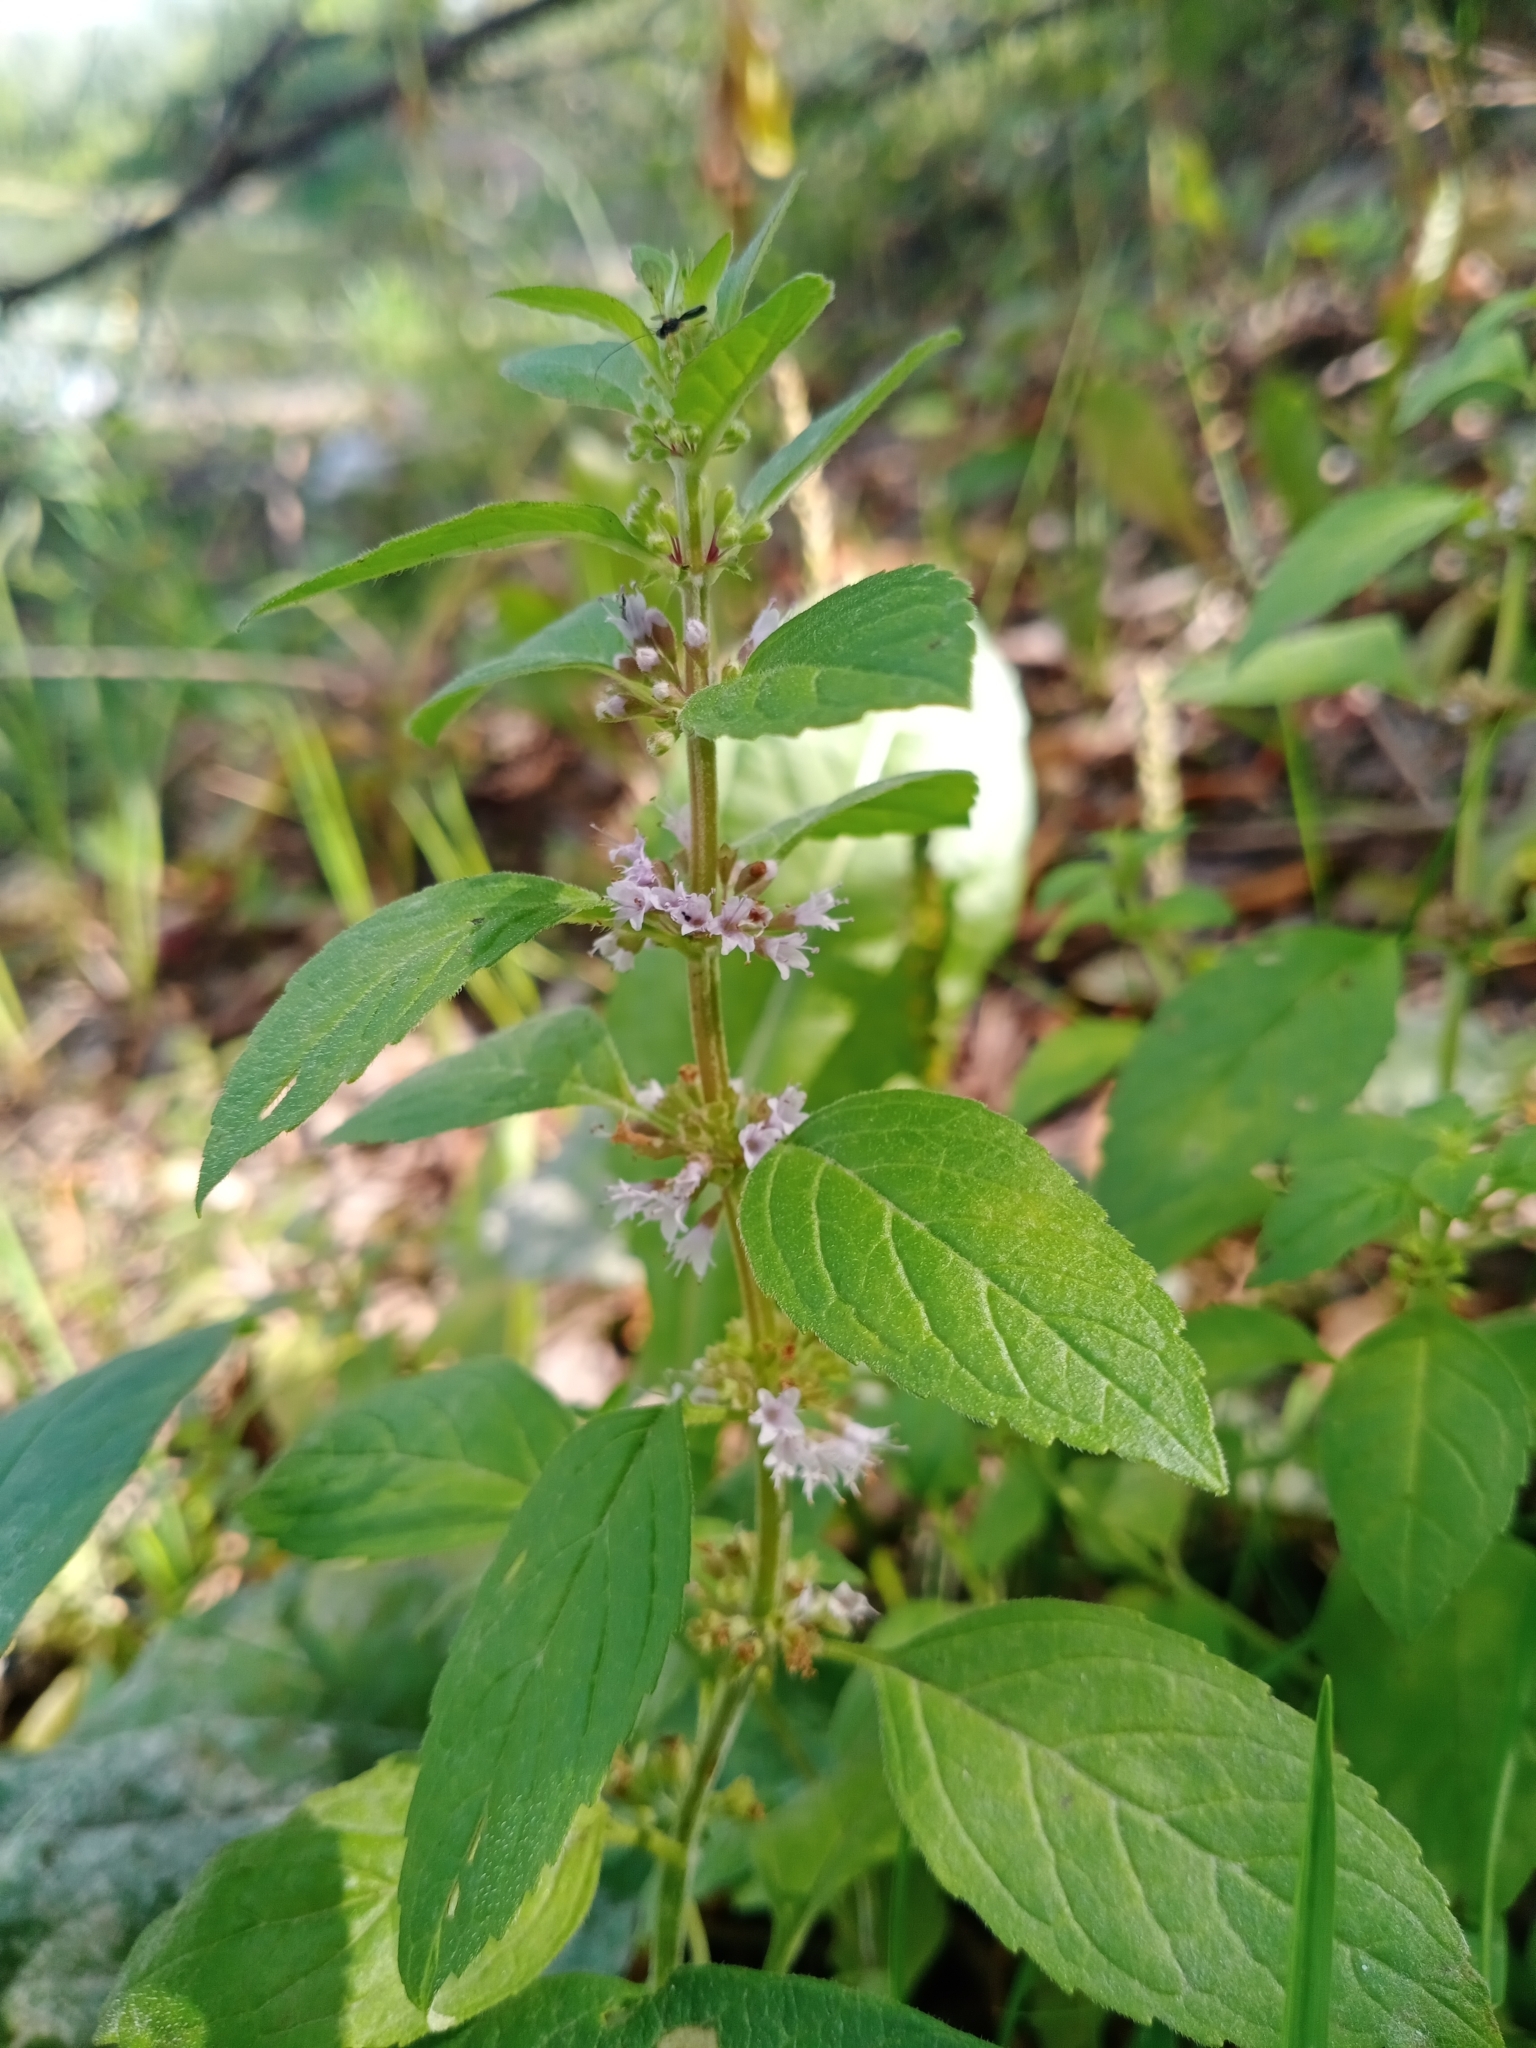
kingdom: Plantae
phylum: Tracheophyta
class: Magnoliopsida
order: Lamiales
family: Lamiaceae
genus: Mentha
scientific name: Mentha arvensis
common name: Corn mint
